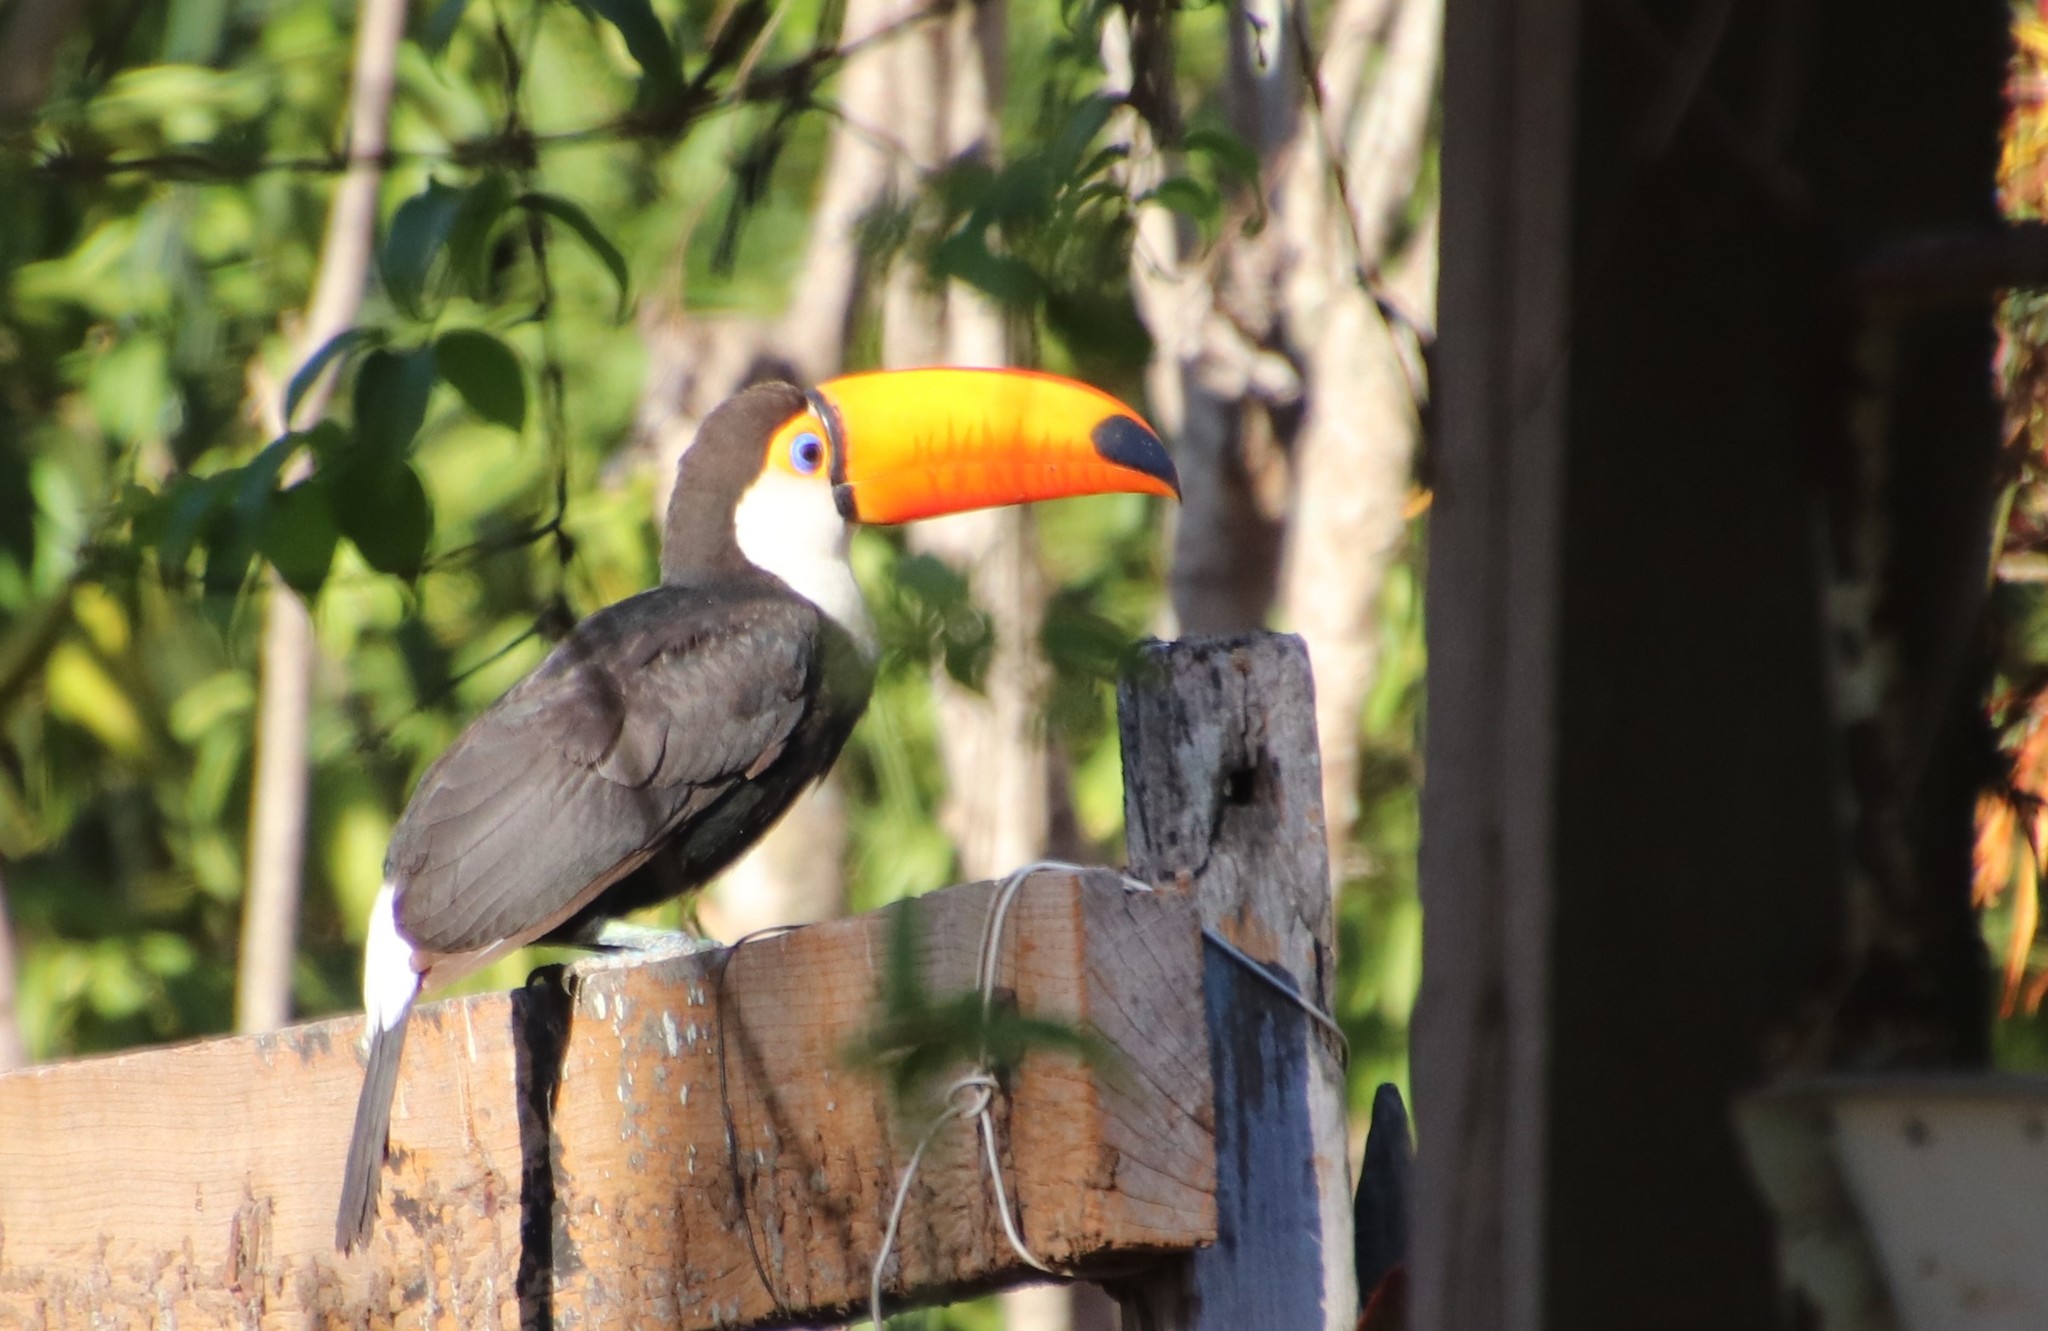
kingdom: Animalia
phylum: Chordata
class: Aves
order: Piciformes
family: Ramphastidae
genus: Ramphastos
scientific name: Ramphastos toco
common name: Toco toucan
